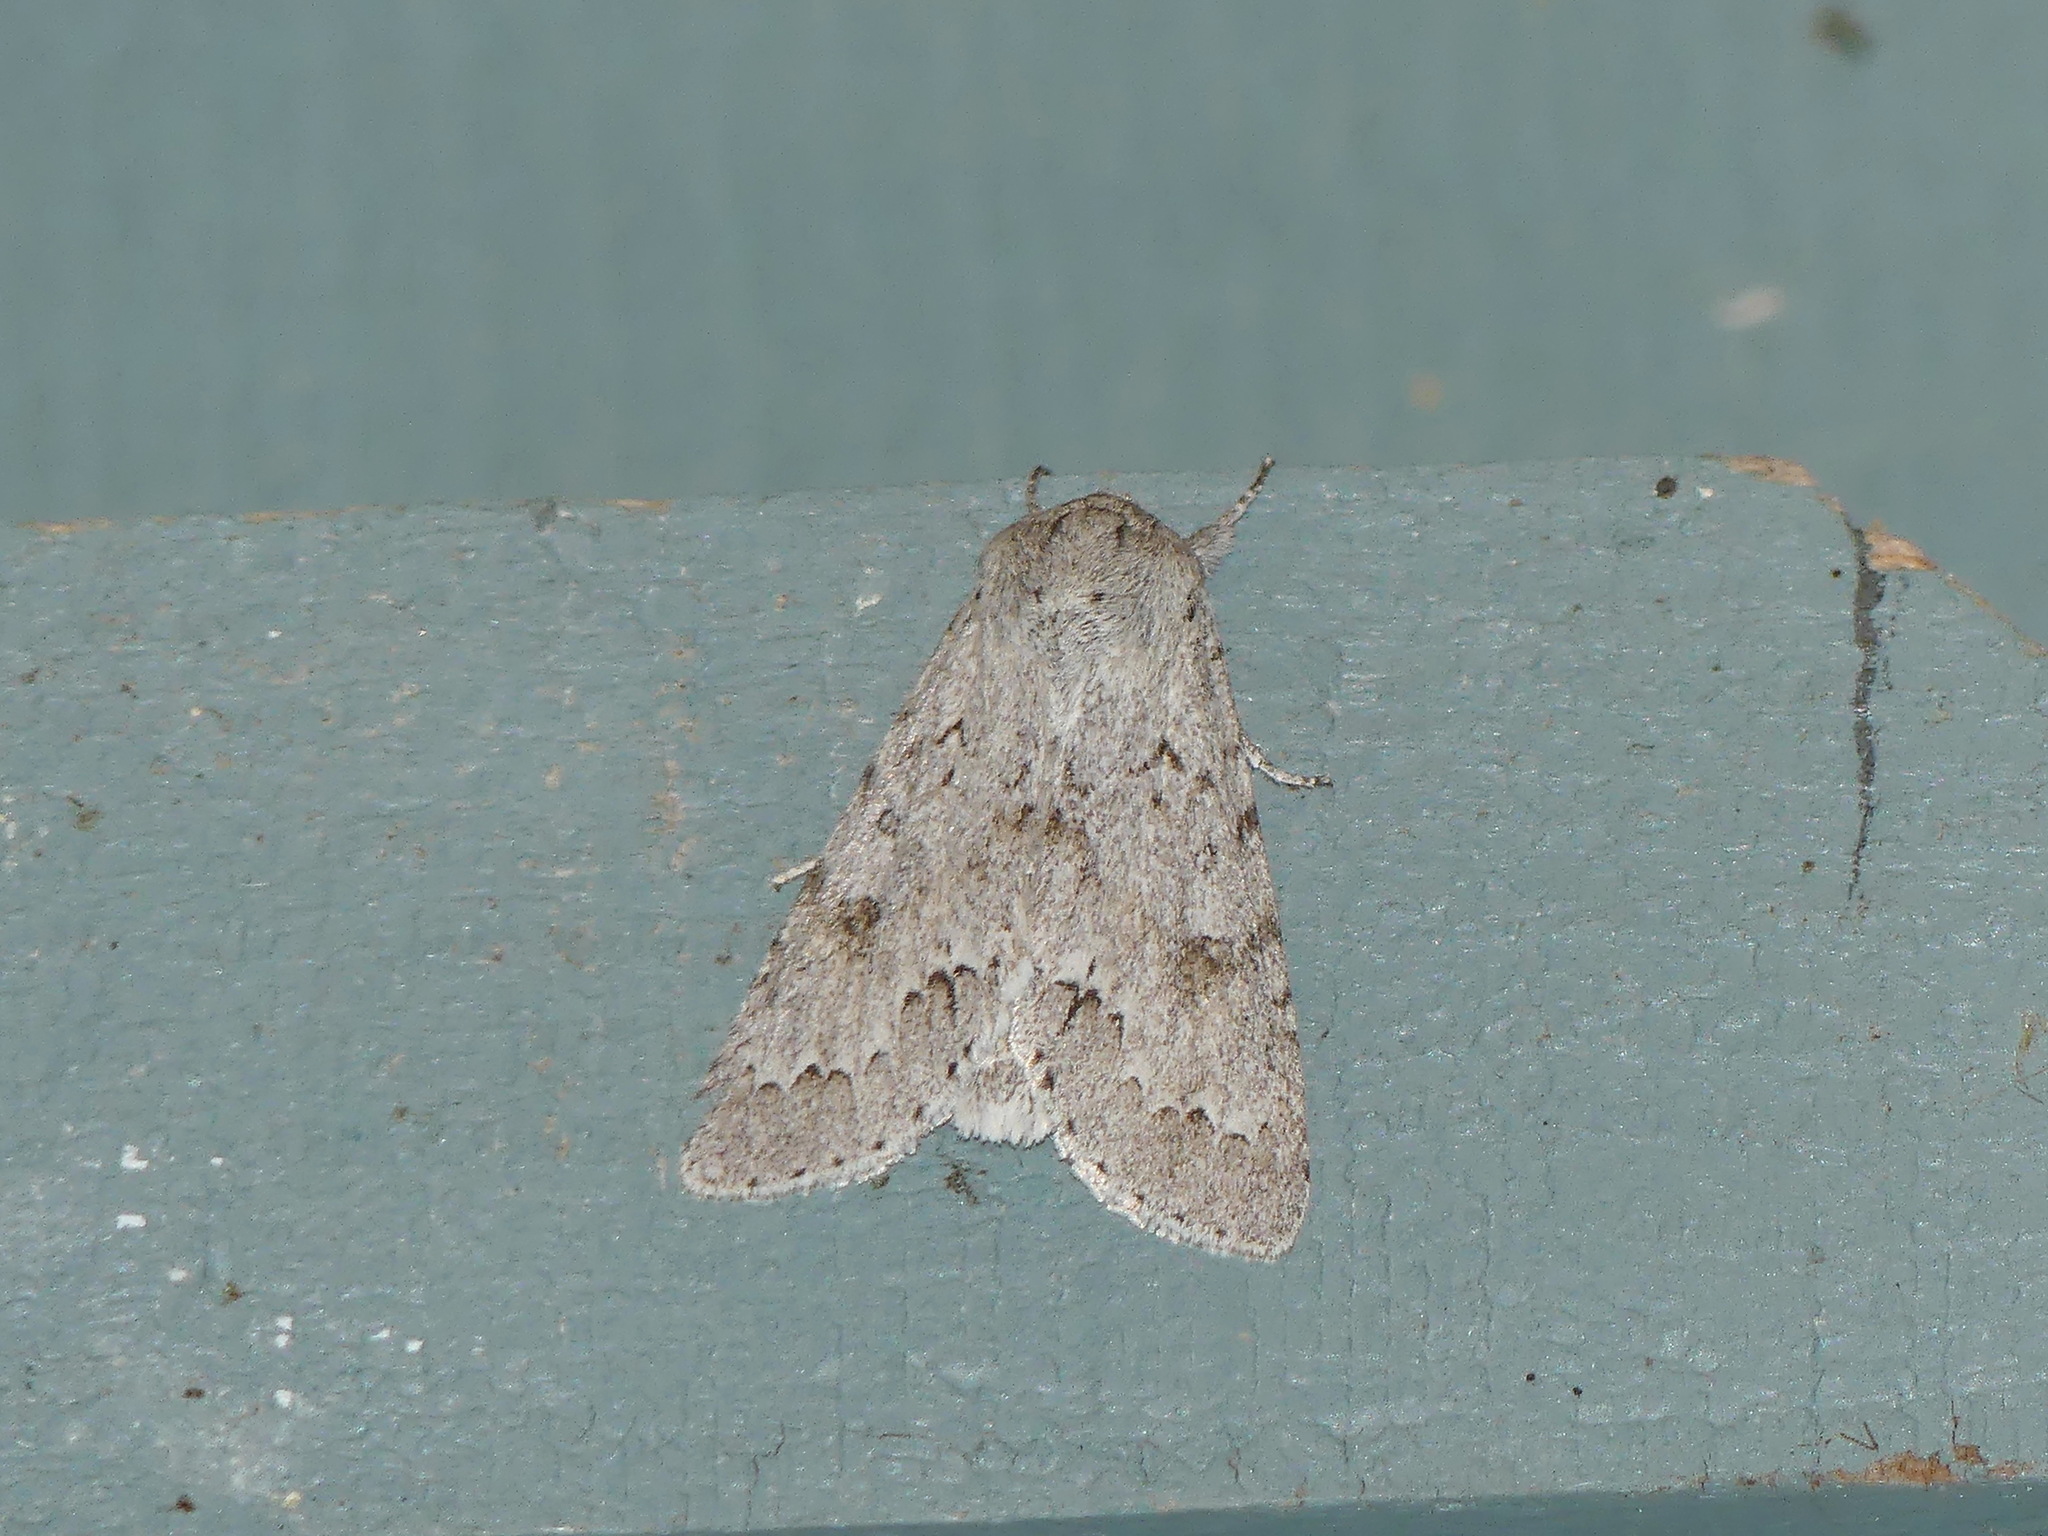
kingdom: Animalia
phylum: Arthropoda
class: Insecta
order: Lepidoptera
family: Noctuidae
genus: Acronicta
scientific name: Acronicta insita
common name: Large gray dagger
